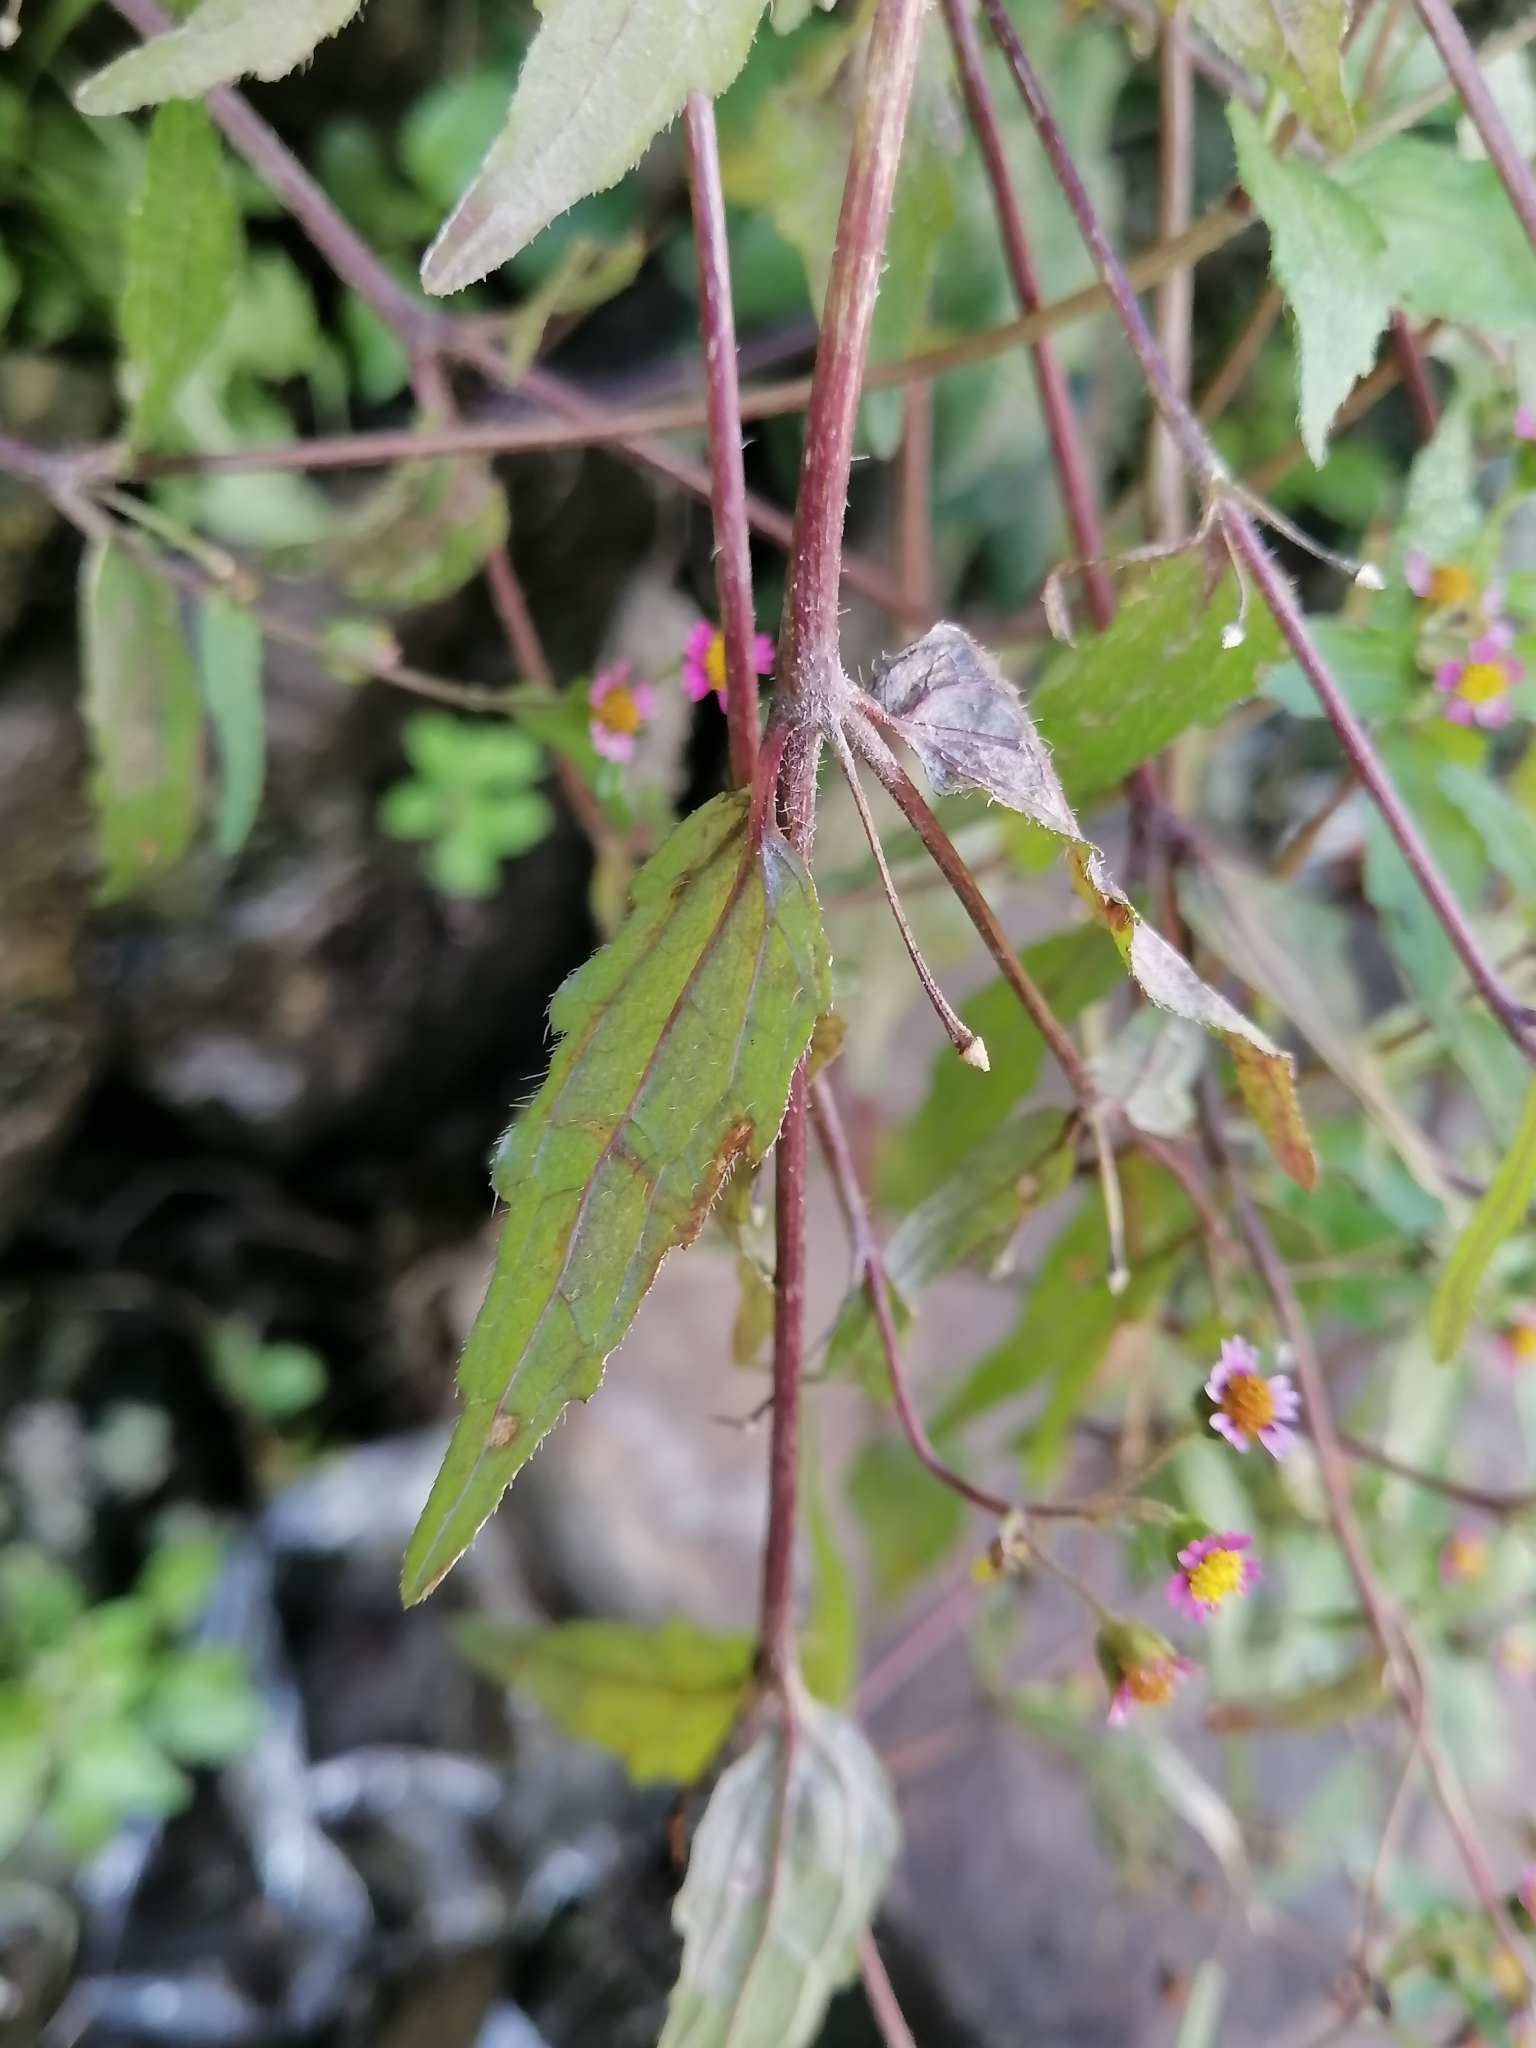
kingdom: Plantae
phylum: Tracheophyta
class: Magnoliopsida
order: Asterales
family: Asteraceae
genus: Galinsoga
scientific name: Galinsoga parviflora
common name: Gallant soldier
